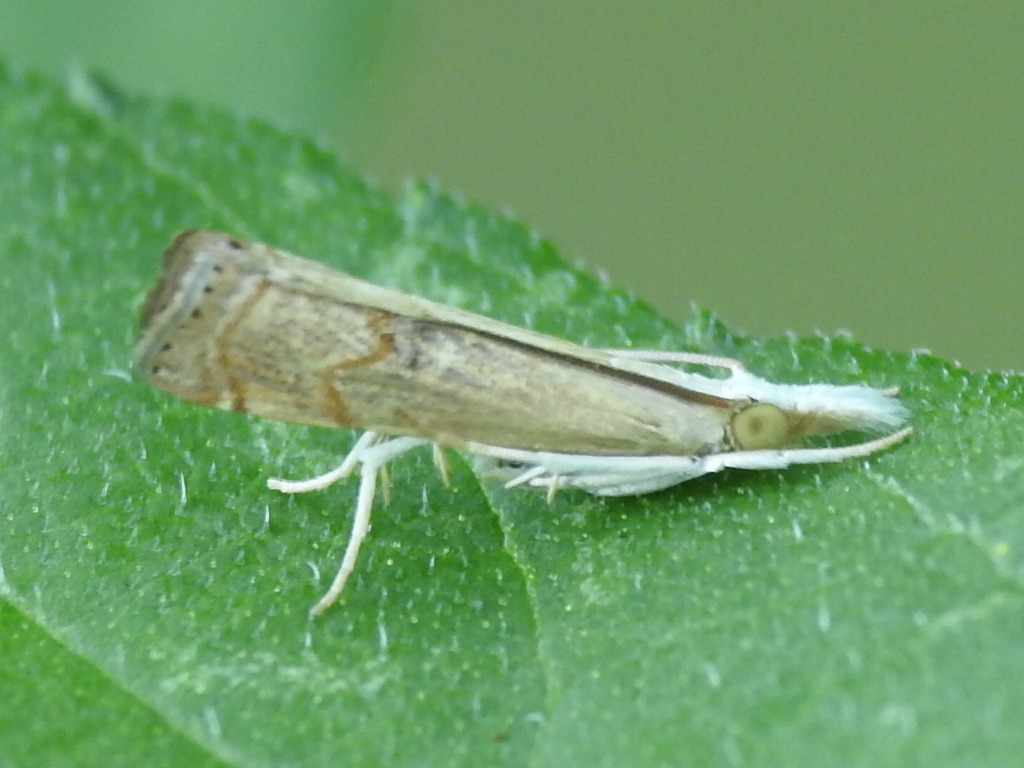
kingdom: Animalia
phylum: Arthropoda
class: Insecta
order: Lepidoptera
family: Crambidae
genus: Parapediasia
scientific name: Parapediasia teterellus
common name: Bluegrass webworm moth
